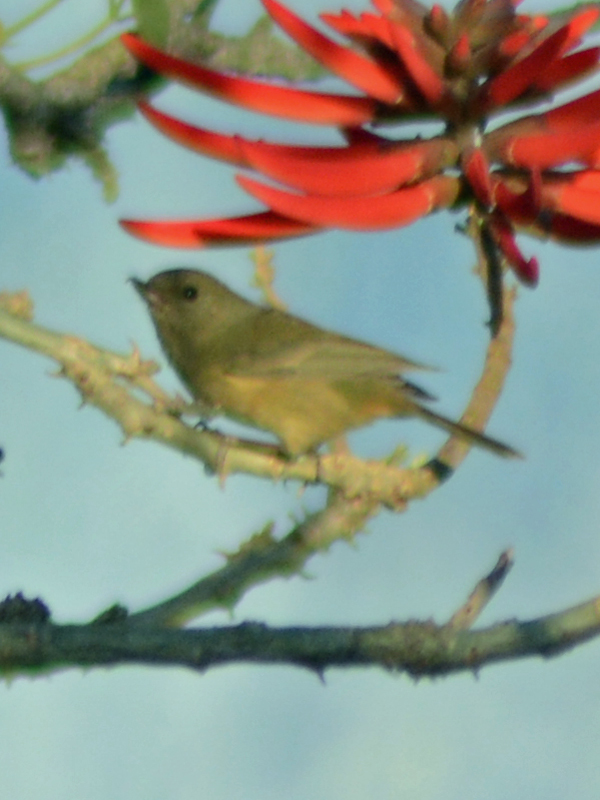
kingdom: Animalia
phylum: Chordata
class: Aves
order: Passeriformes
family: Thraupidae
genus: Diglossa
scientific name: Diglossa baritula
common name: Cinnamon-bellied flowerpiercer
